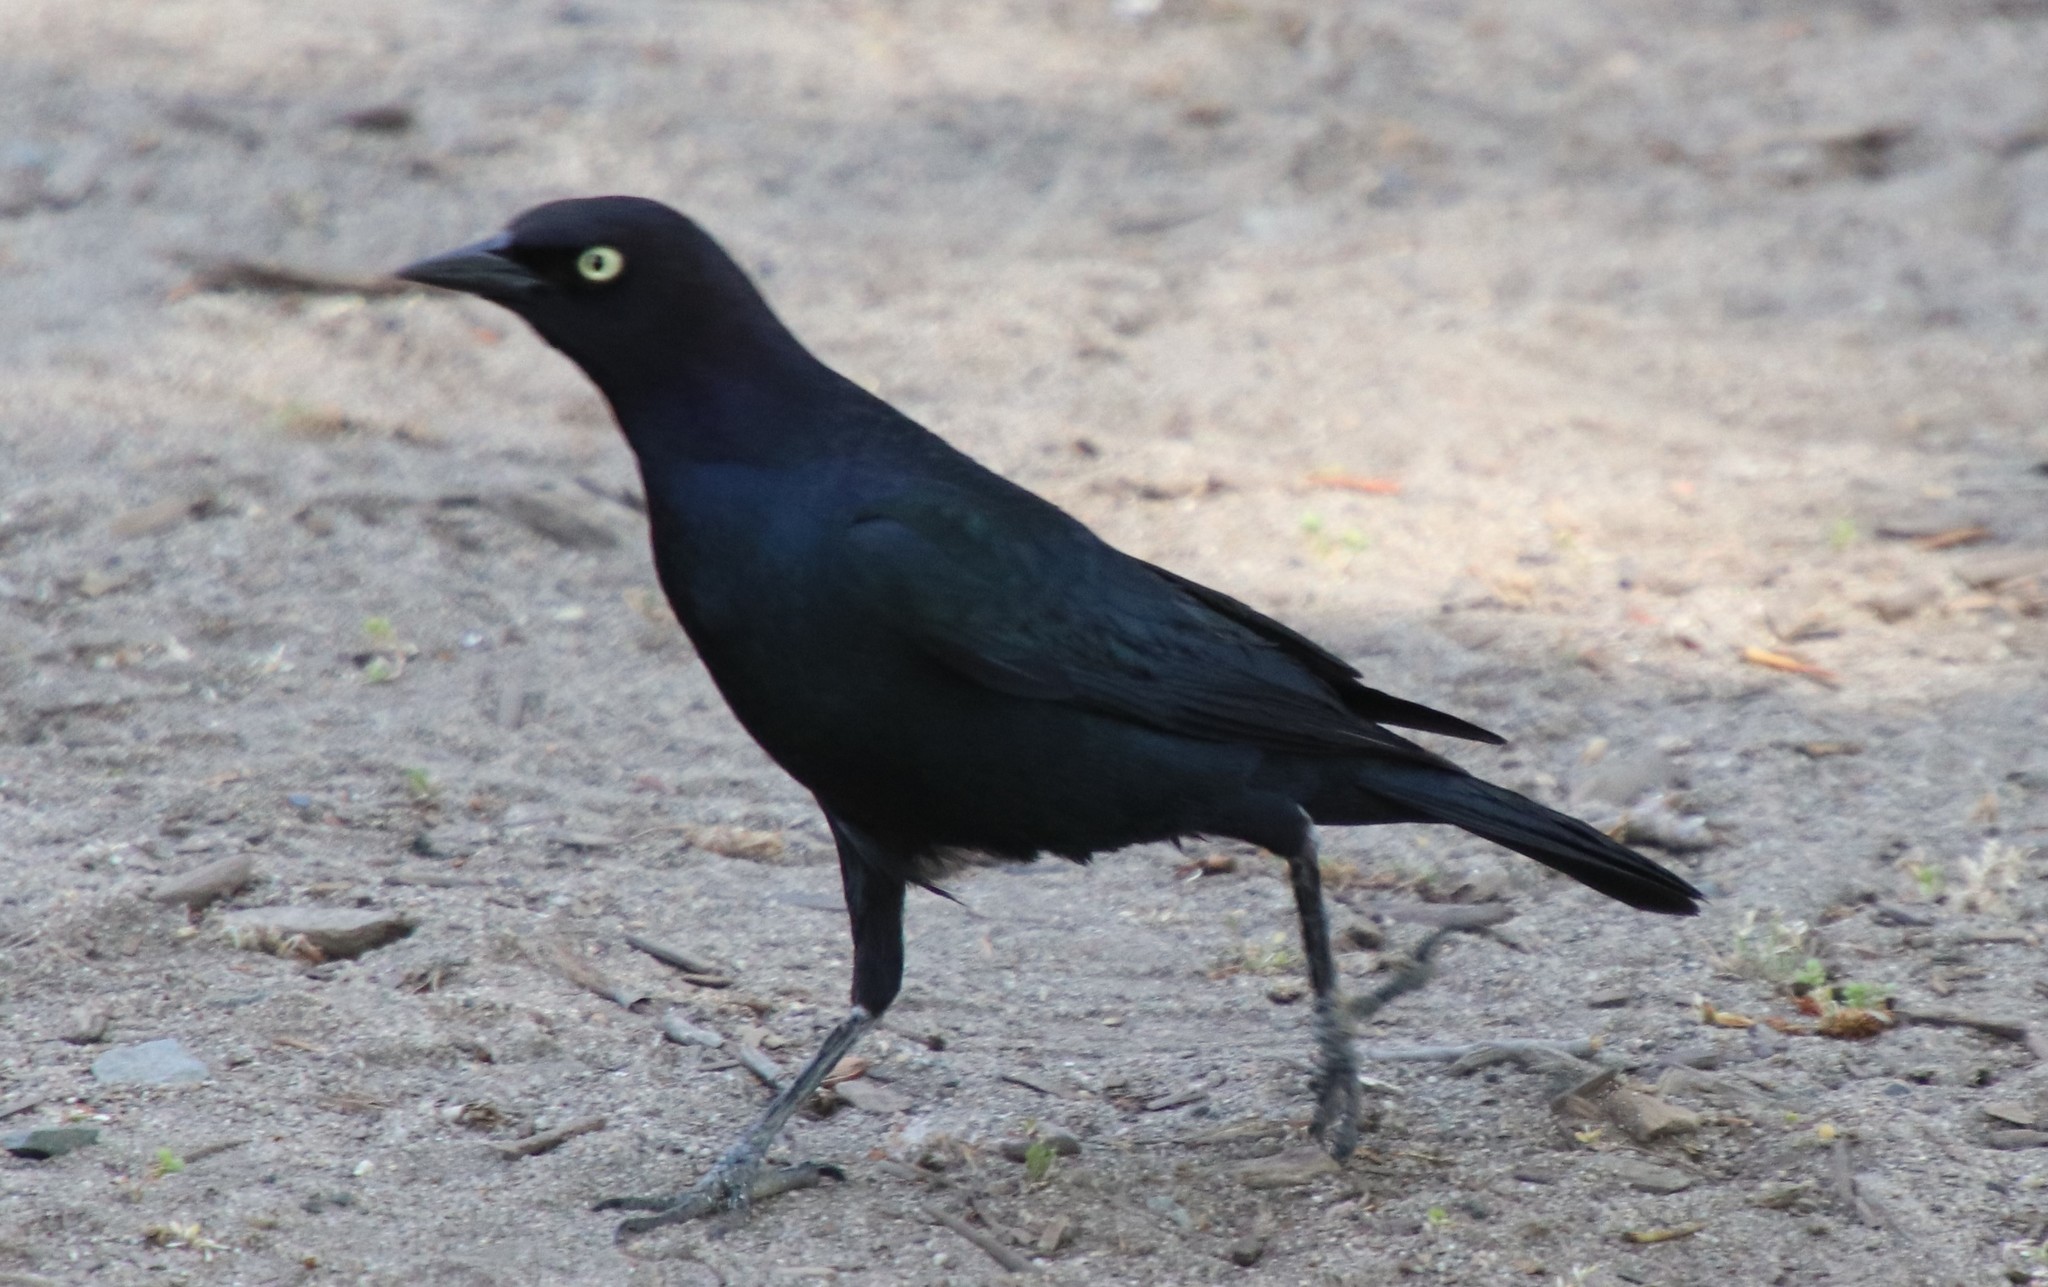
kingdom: Animalia
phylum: Chordata
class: Aves
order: Passeriformes
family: Icteridae
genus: Euphagus
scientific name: Euphagus cyanocephalus
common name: Brewer's blackbird
